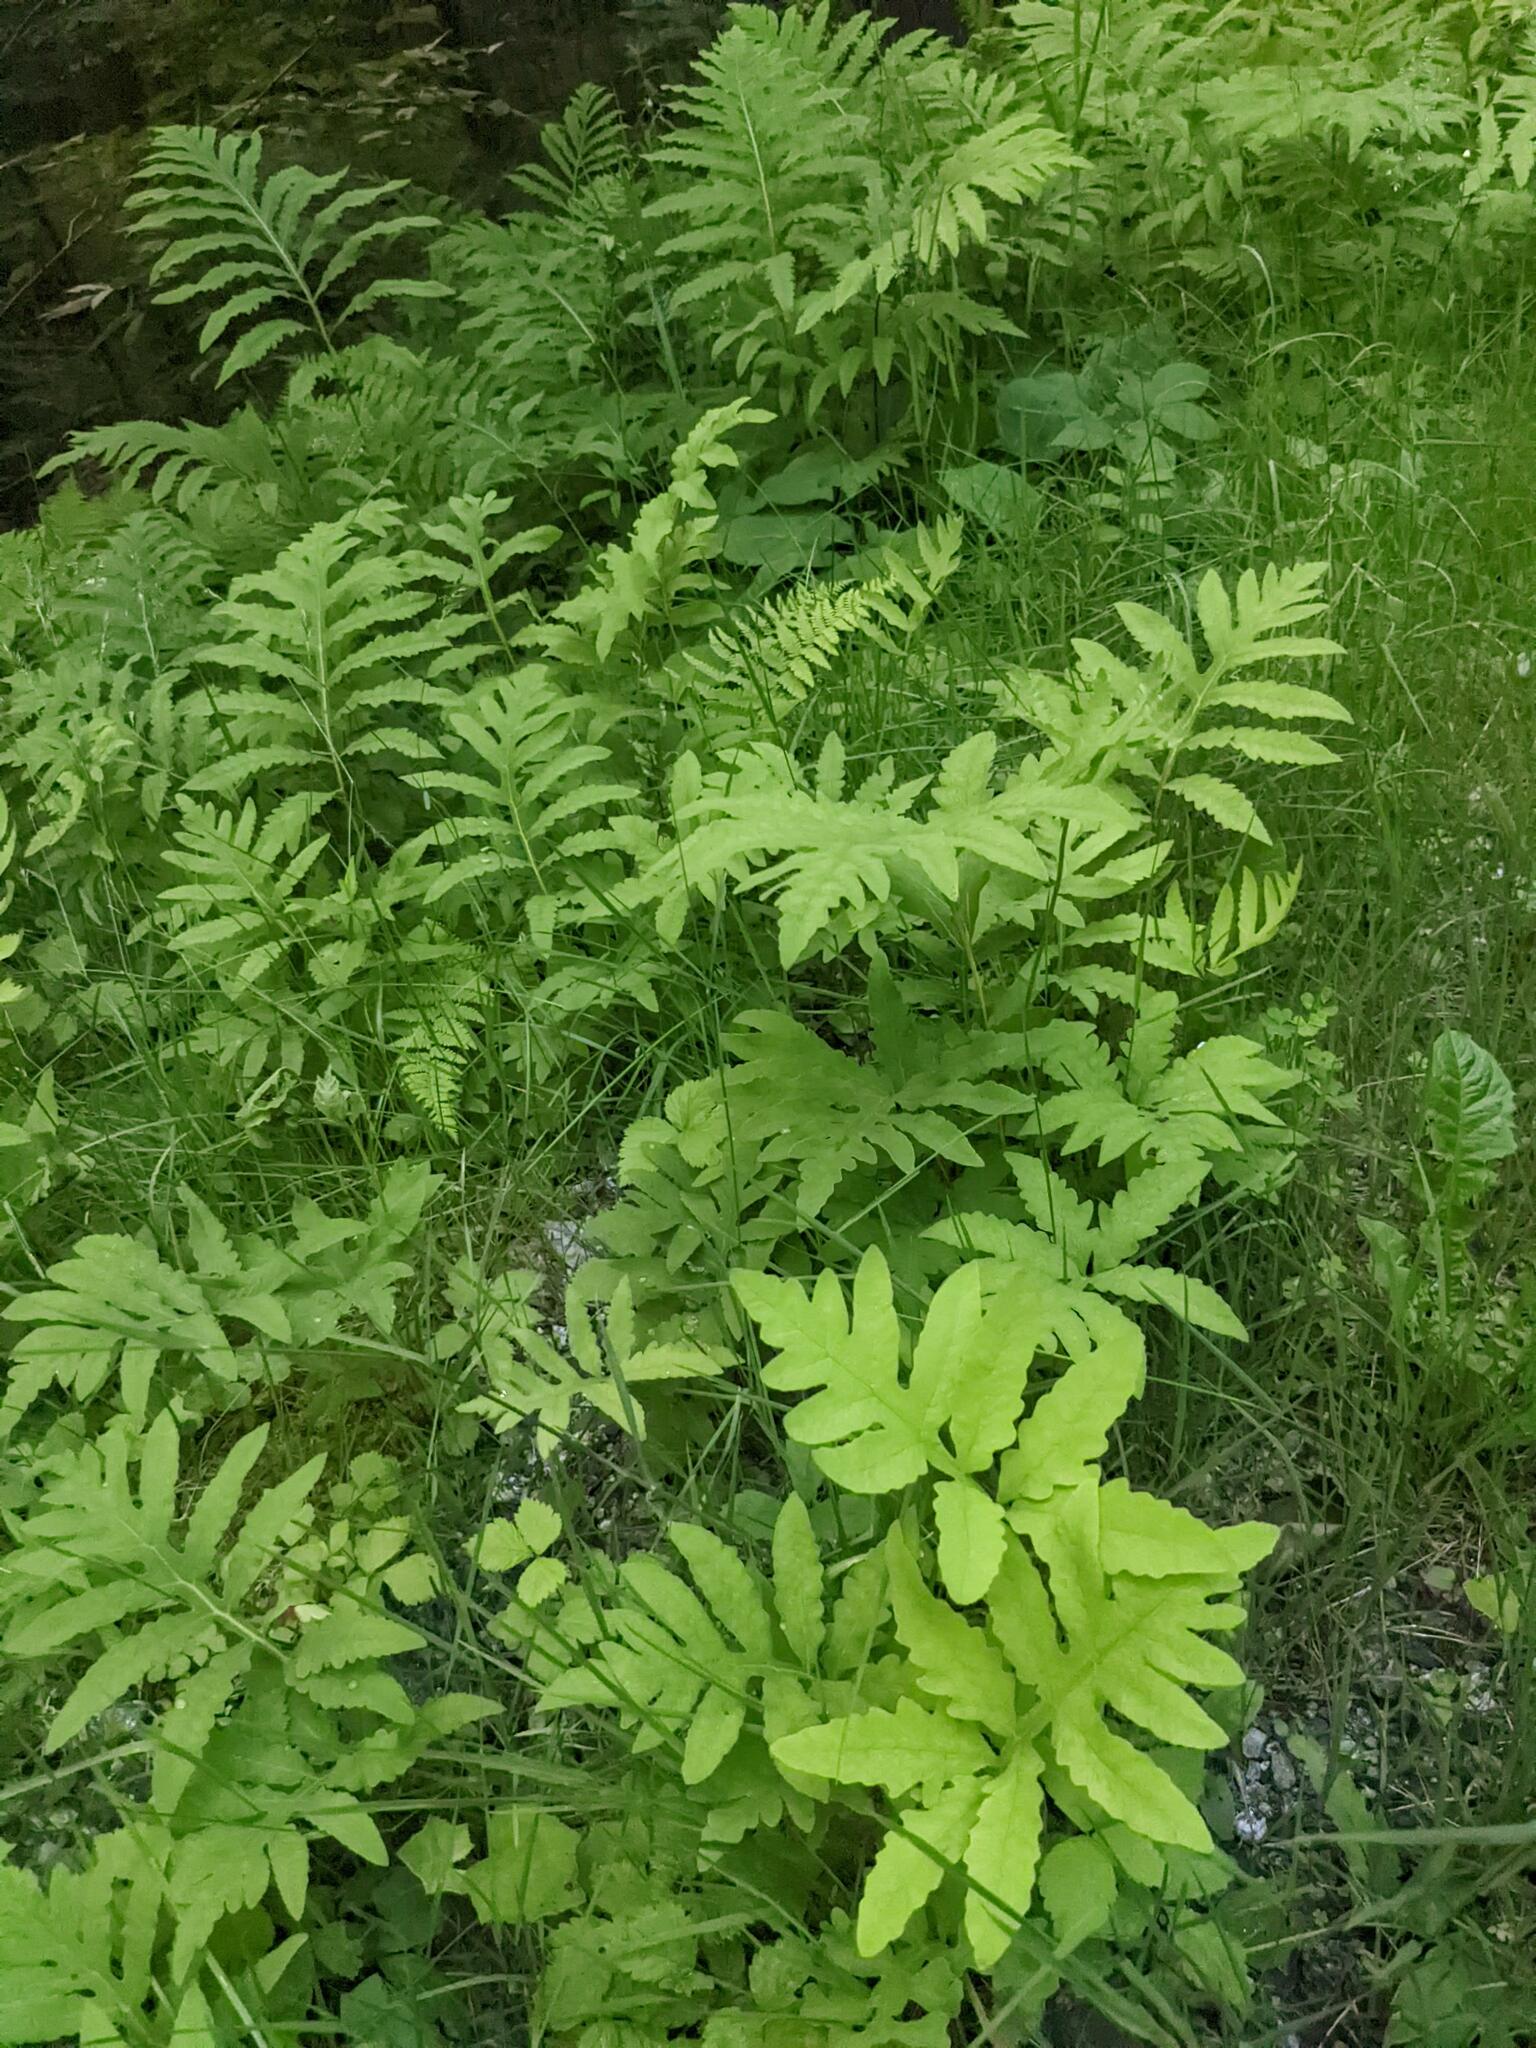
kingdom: Plantae
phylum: Tracheophyta
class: Polypodiopsida
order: Polypodiales
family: Onocleaceae
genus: Onoclea
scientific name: Onoclea sensibilis
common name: Sensitive fern
